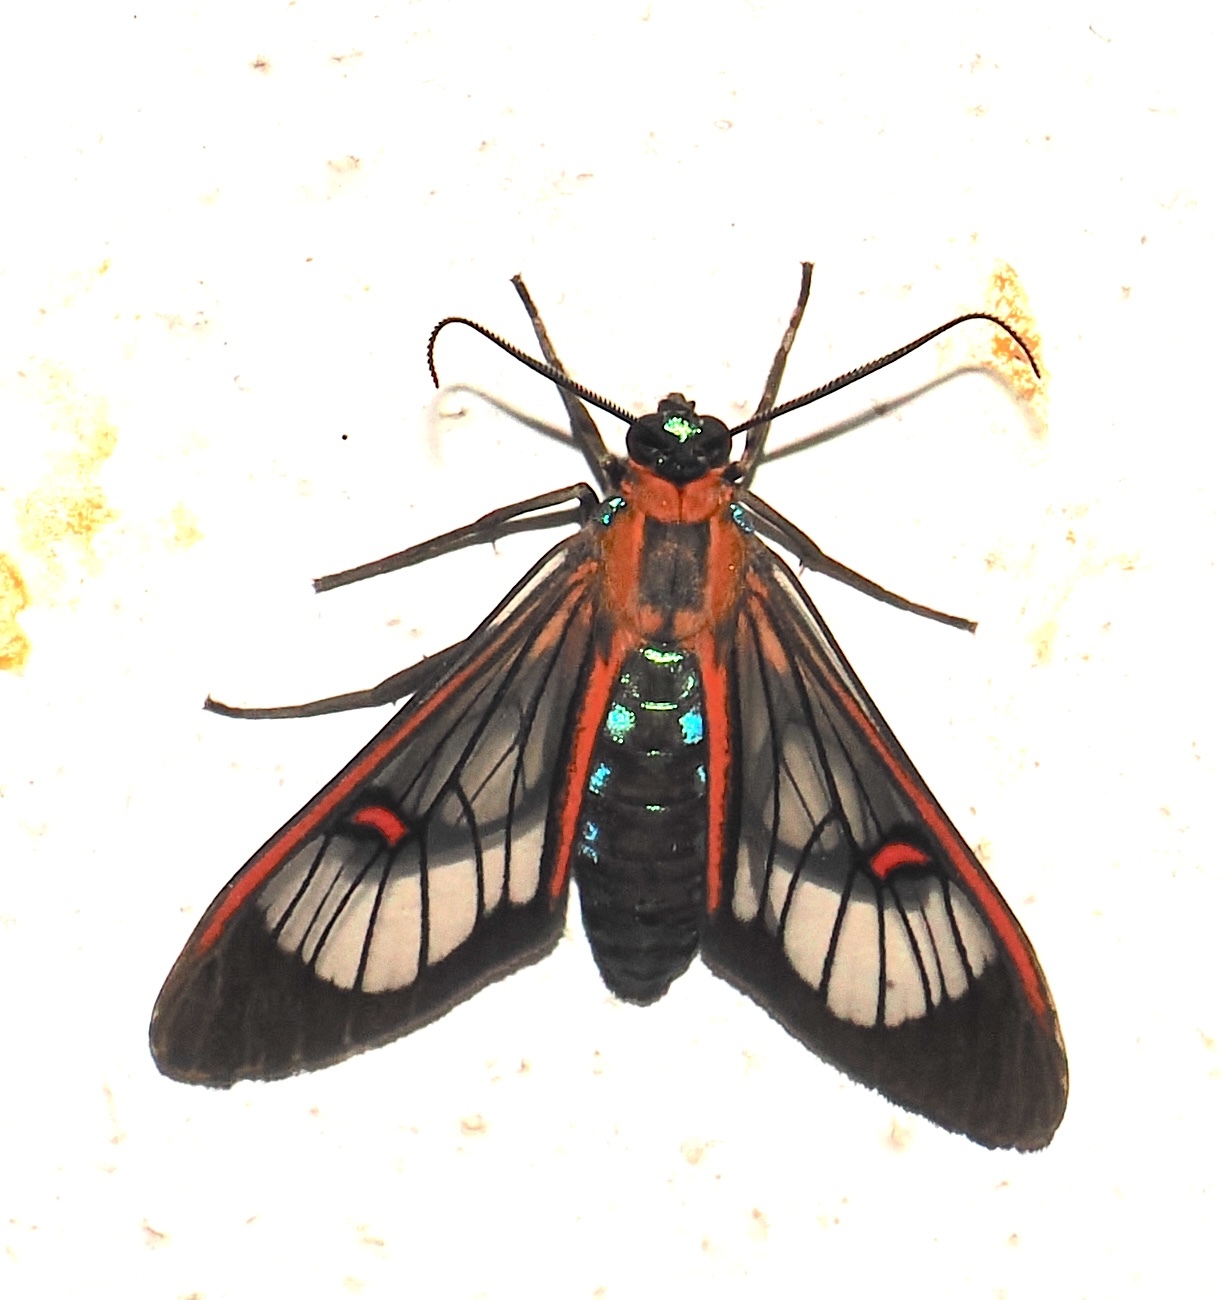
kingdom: Animalia
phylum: Arthropoda
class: Insecta
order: Lepidoptera
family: Erebidae
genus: Lepidoneiva
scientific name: Lepidoneiva erubescens
